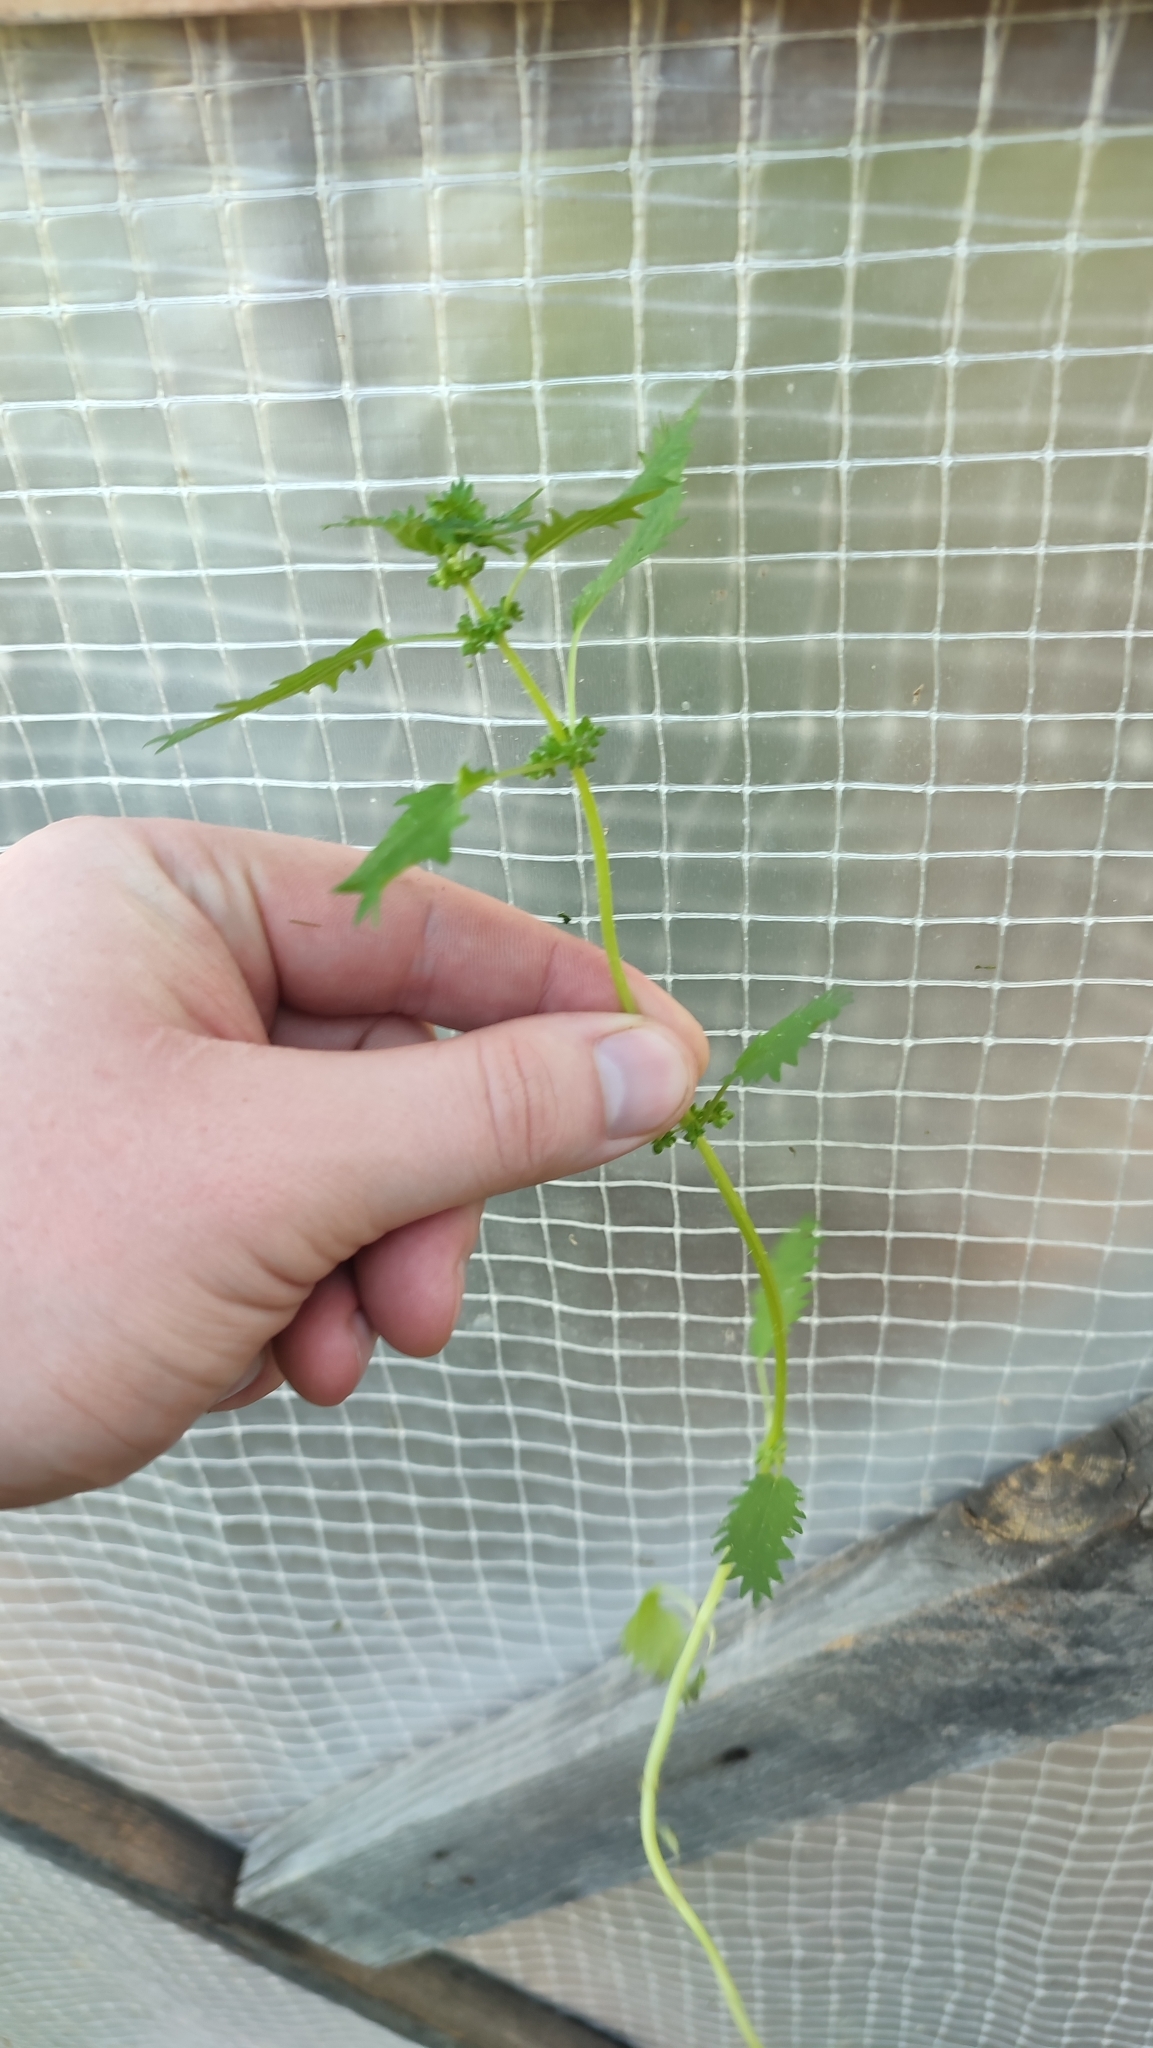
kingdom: Plantae
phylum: Tracheophyta
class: Magnoliopsida
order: Rosales
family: Urticaceae
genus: Urtica
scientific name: Urtica urens
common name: Dwarf nettle
